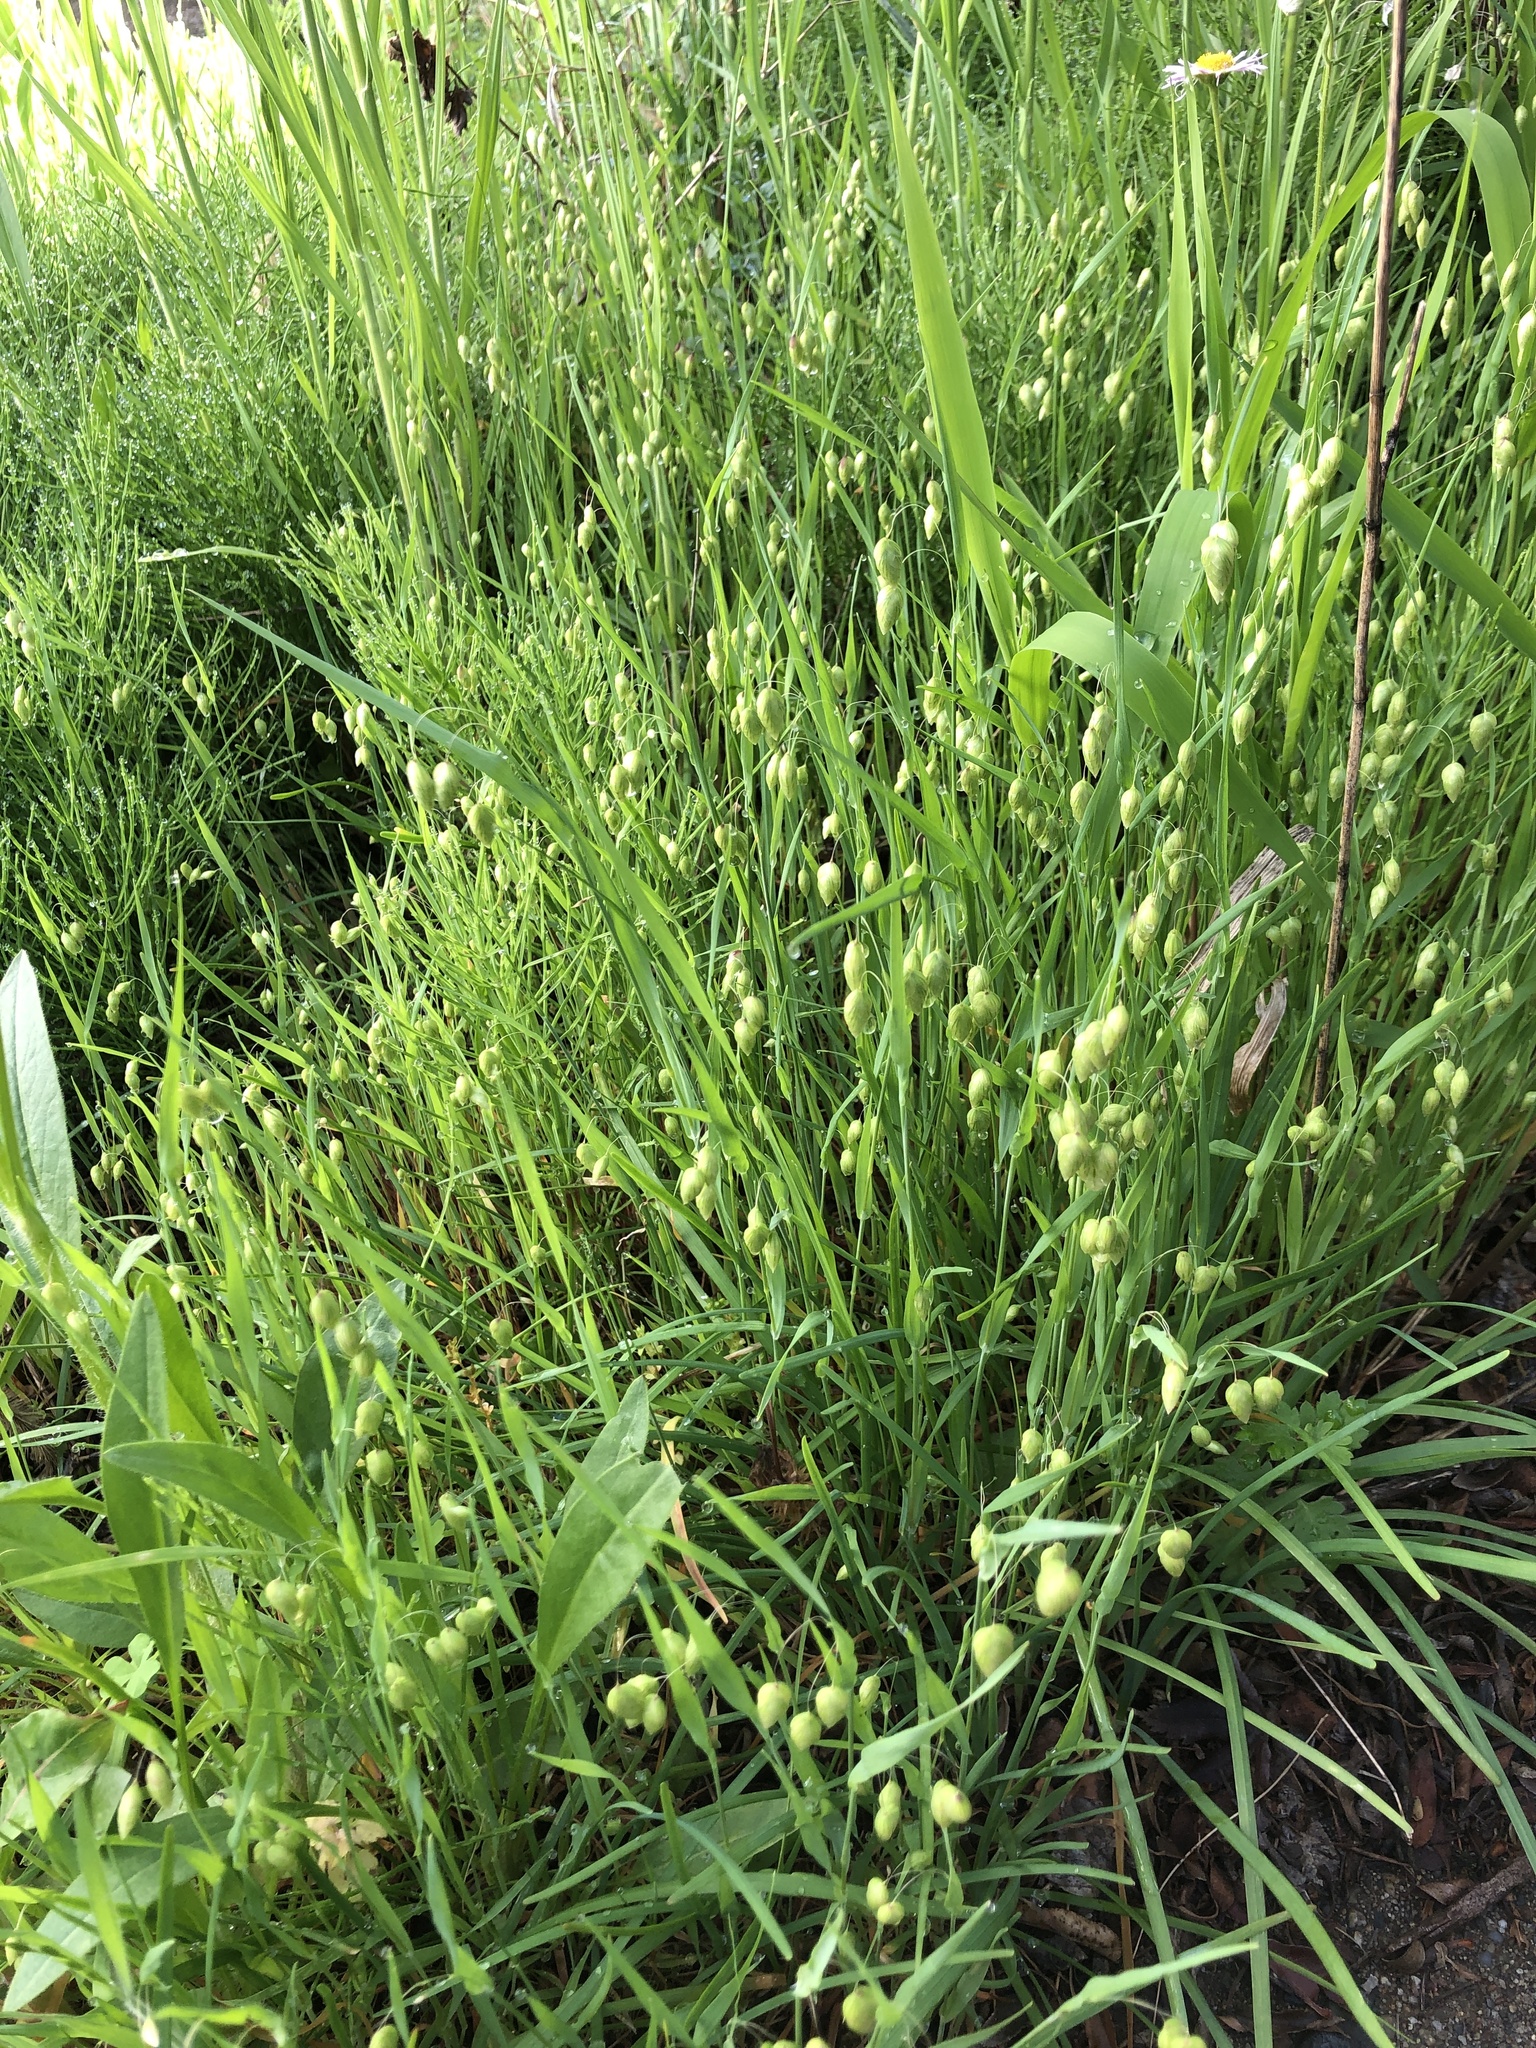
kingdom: Plantae
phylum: Tracheophyta
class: Liliopsida
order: Poales
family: Poaceae
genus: Briza
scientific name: Briza maxima
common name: Big quakinggrass
